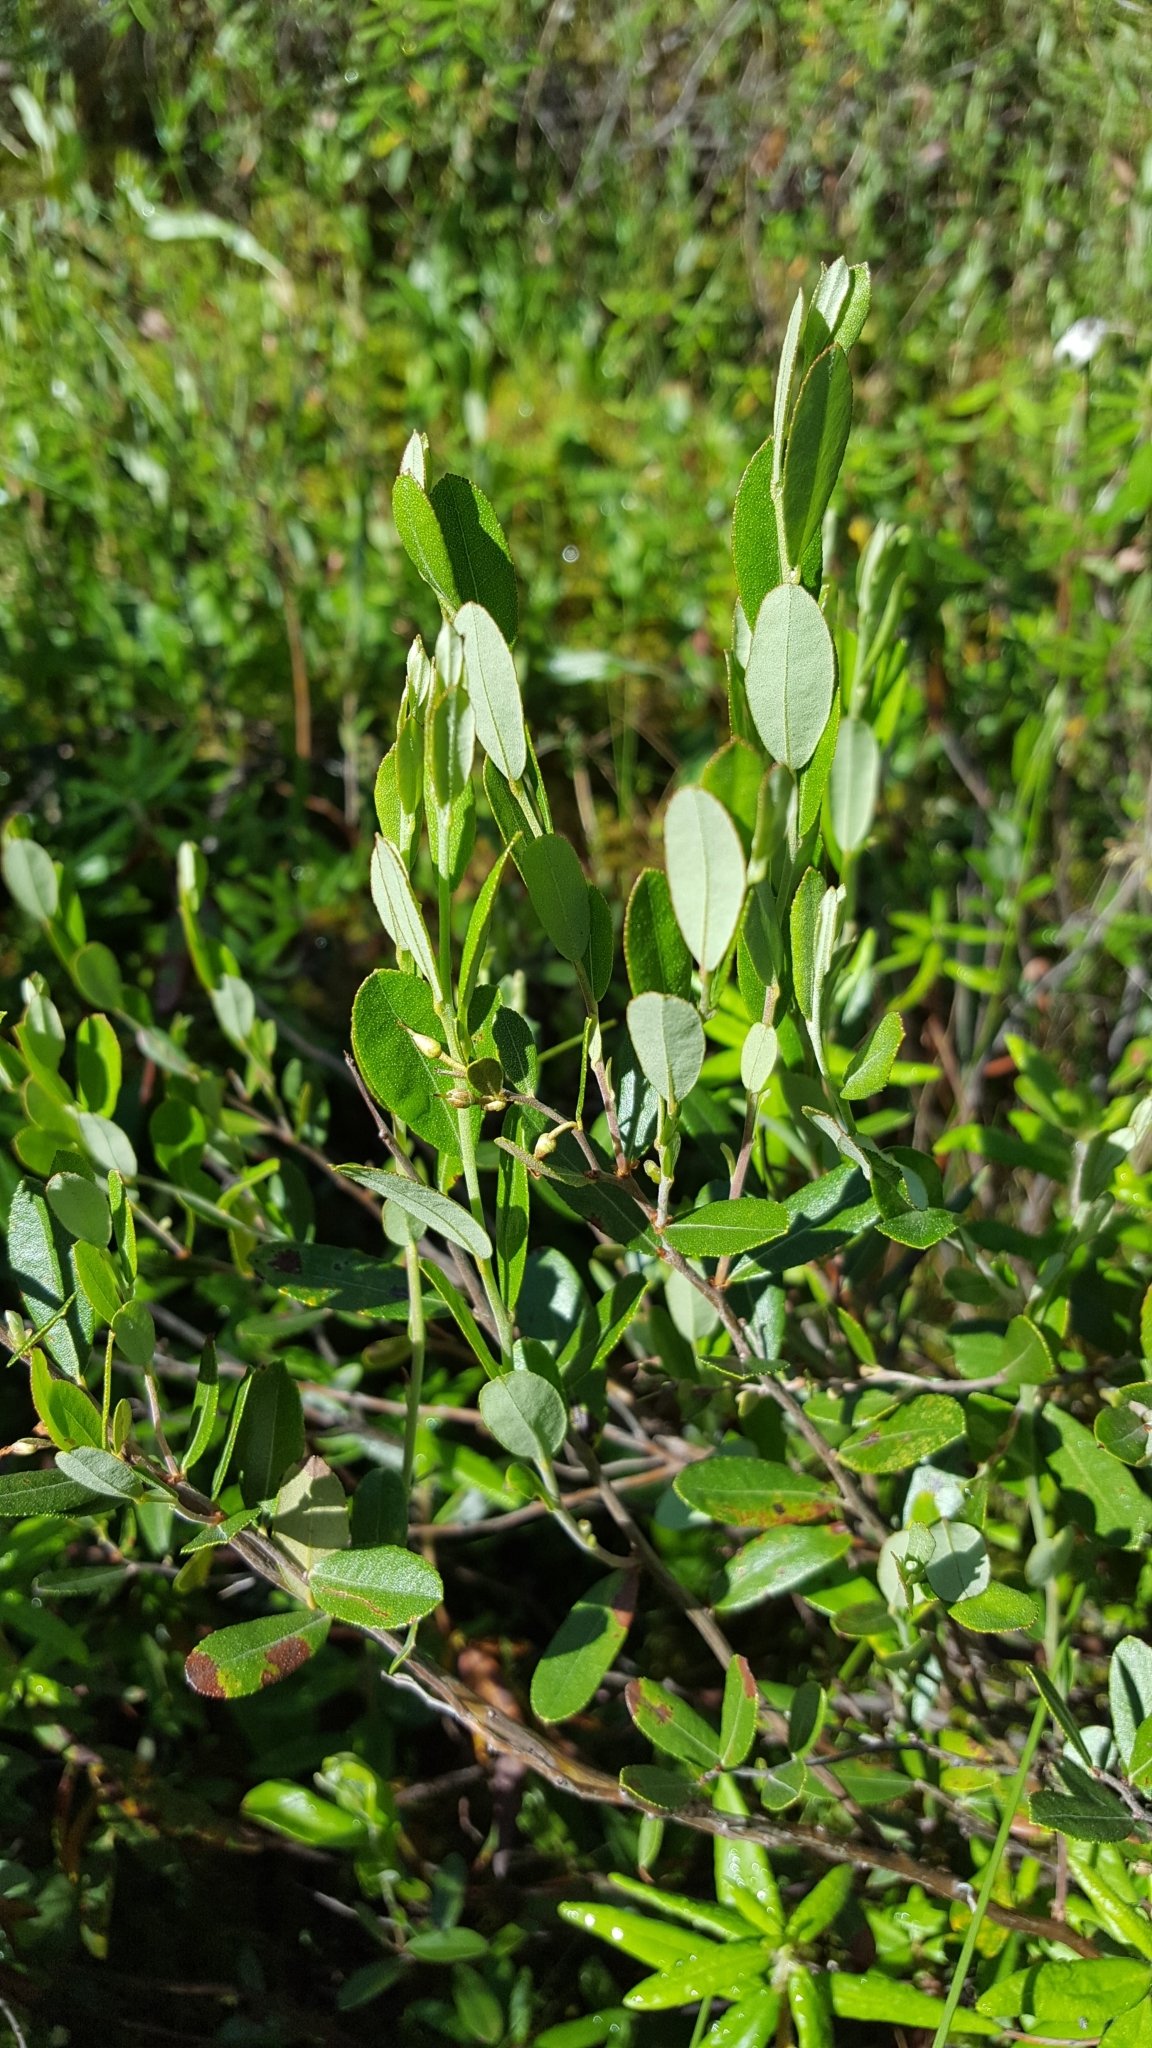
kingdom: Plantae
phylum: Tracheophyta
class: Magnoliopsida
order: Ericales
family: Ericaceae
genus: Chamaedaphne
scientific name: Chamaedaphne calyculata
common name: Leatherleaf
